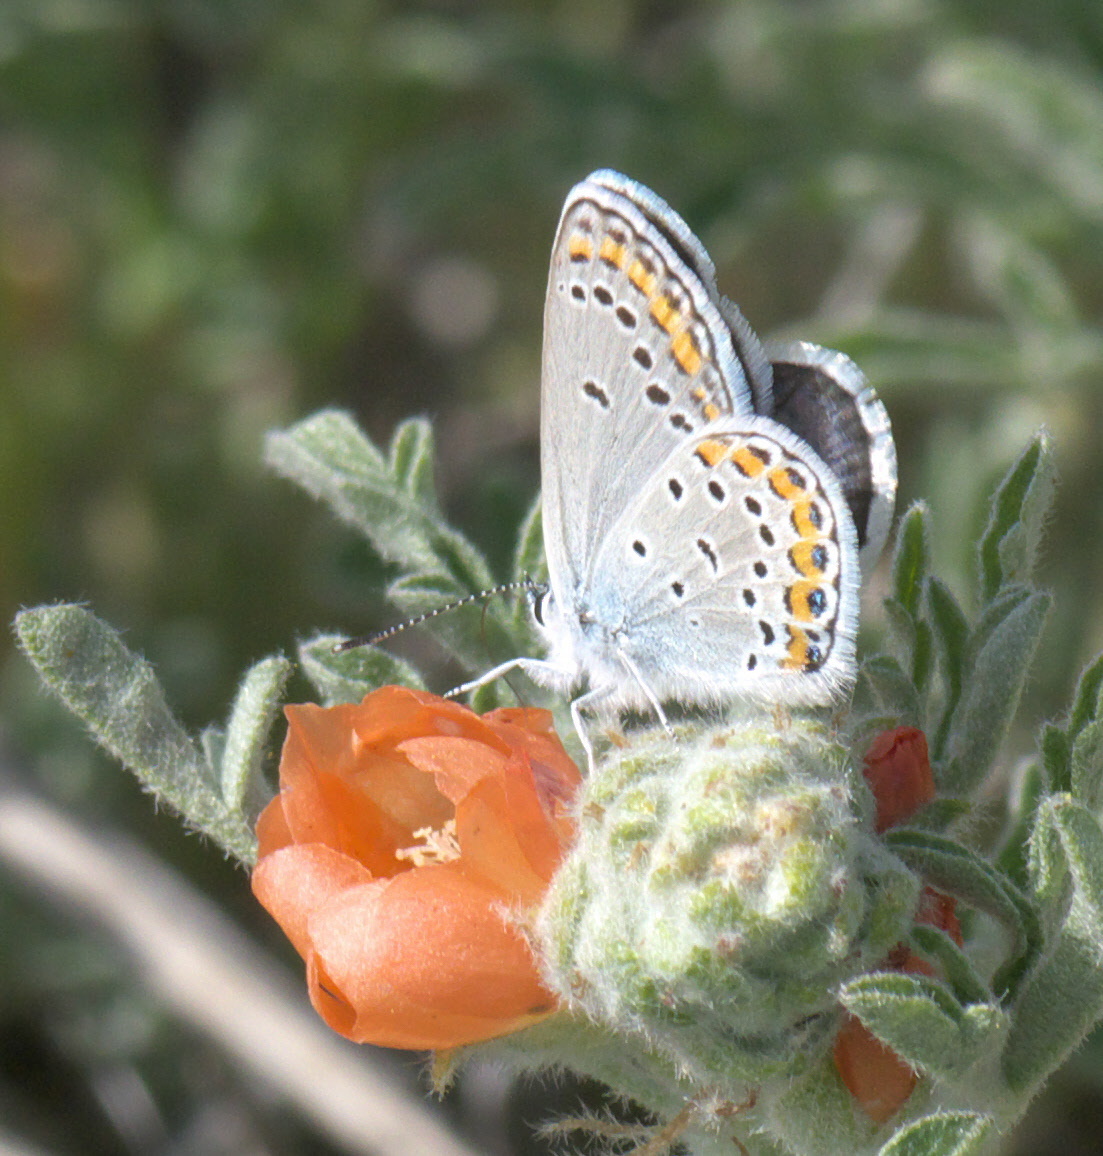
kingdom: Animalia
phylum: Arthropoda
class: Insecta
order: Lepidoptera
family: Lycaenidae
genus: Lycaeides
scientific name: Lycaeides melissa
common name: Melissa blue
